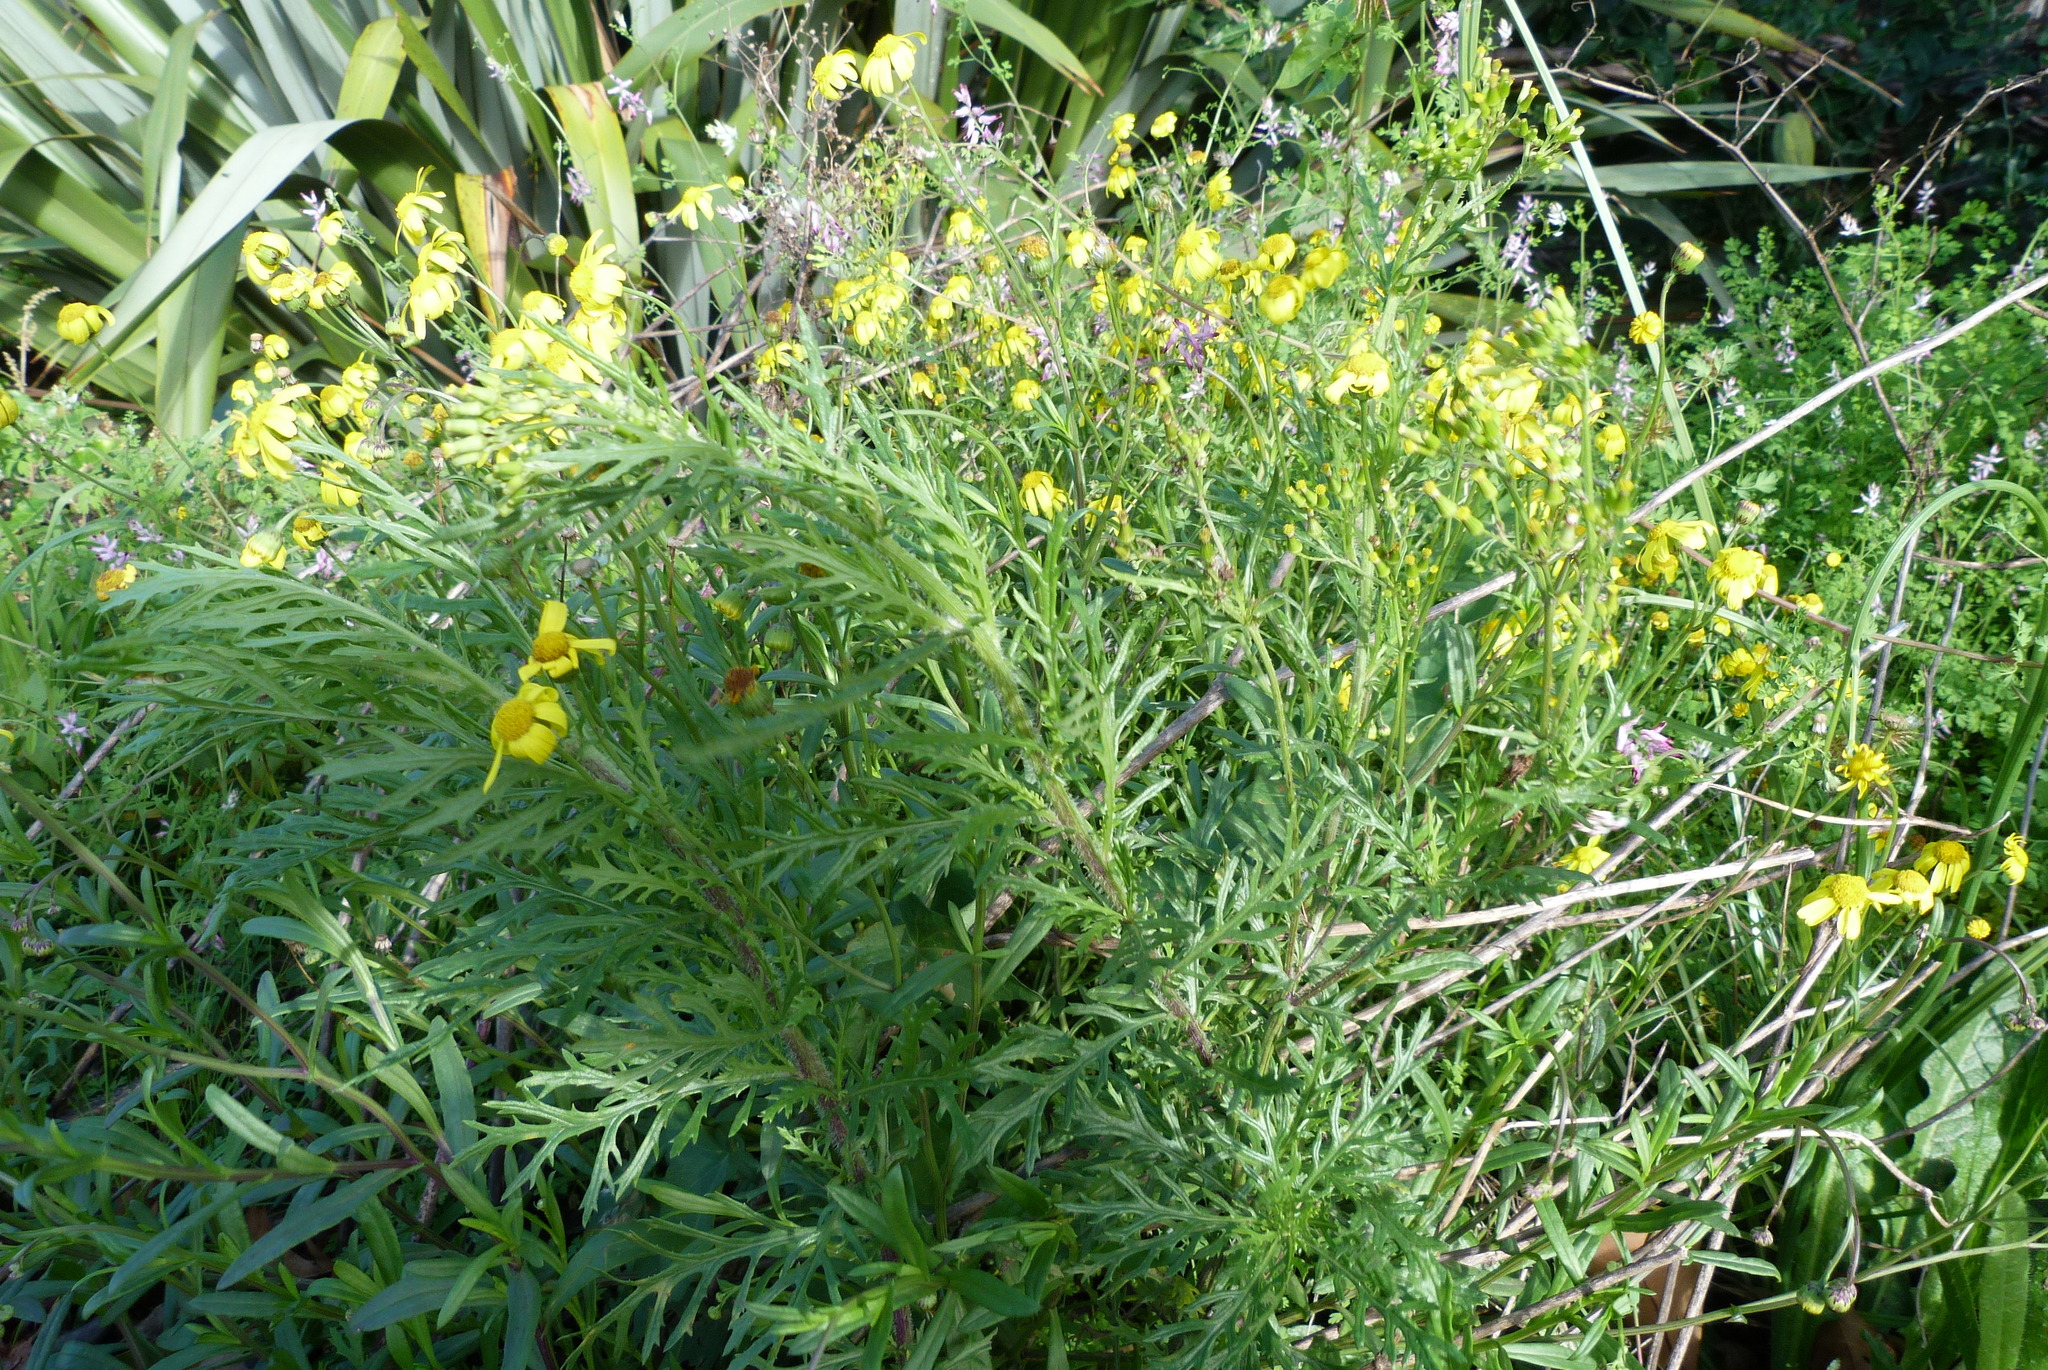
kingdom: Plantae
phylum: Tracheophyta
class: Magnoliopsida
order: Asterales
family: Asteraceae
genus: Senecio
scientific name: Senecio esleri
